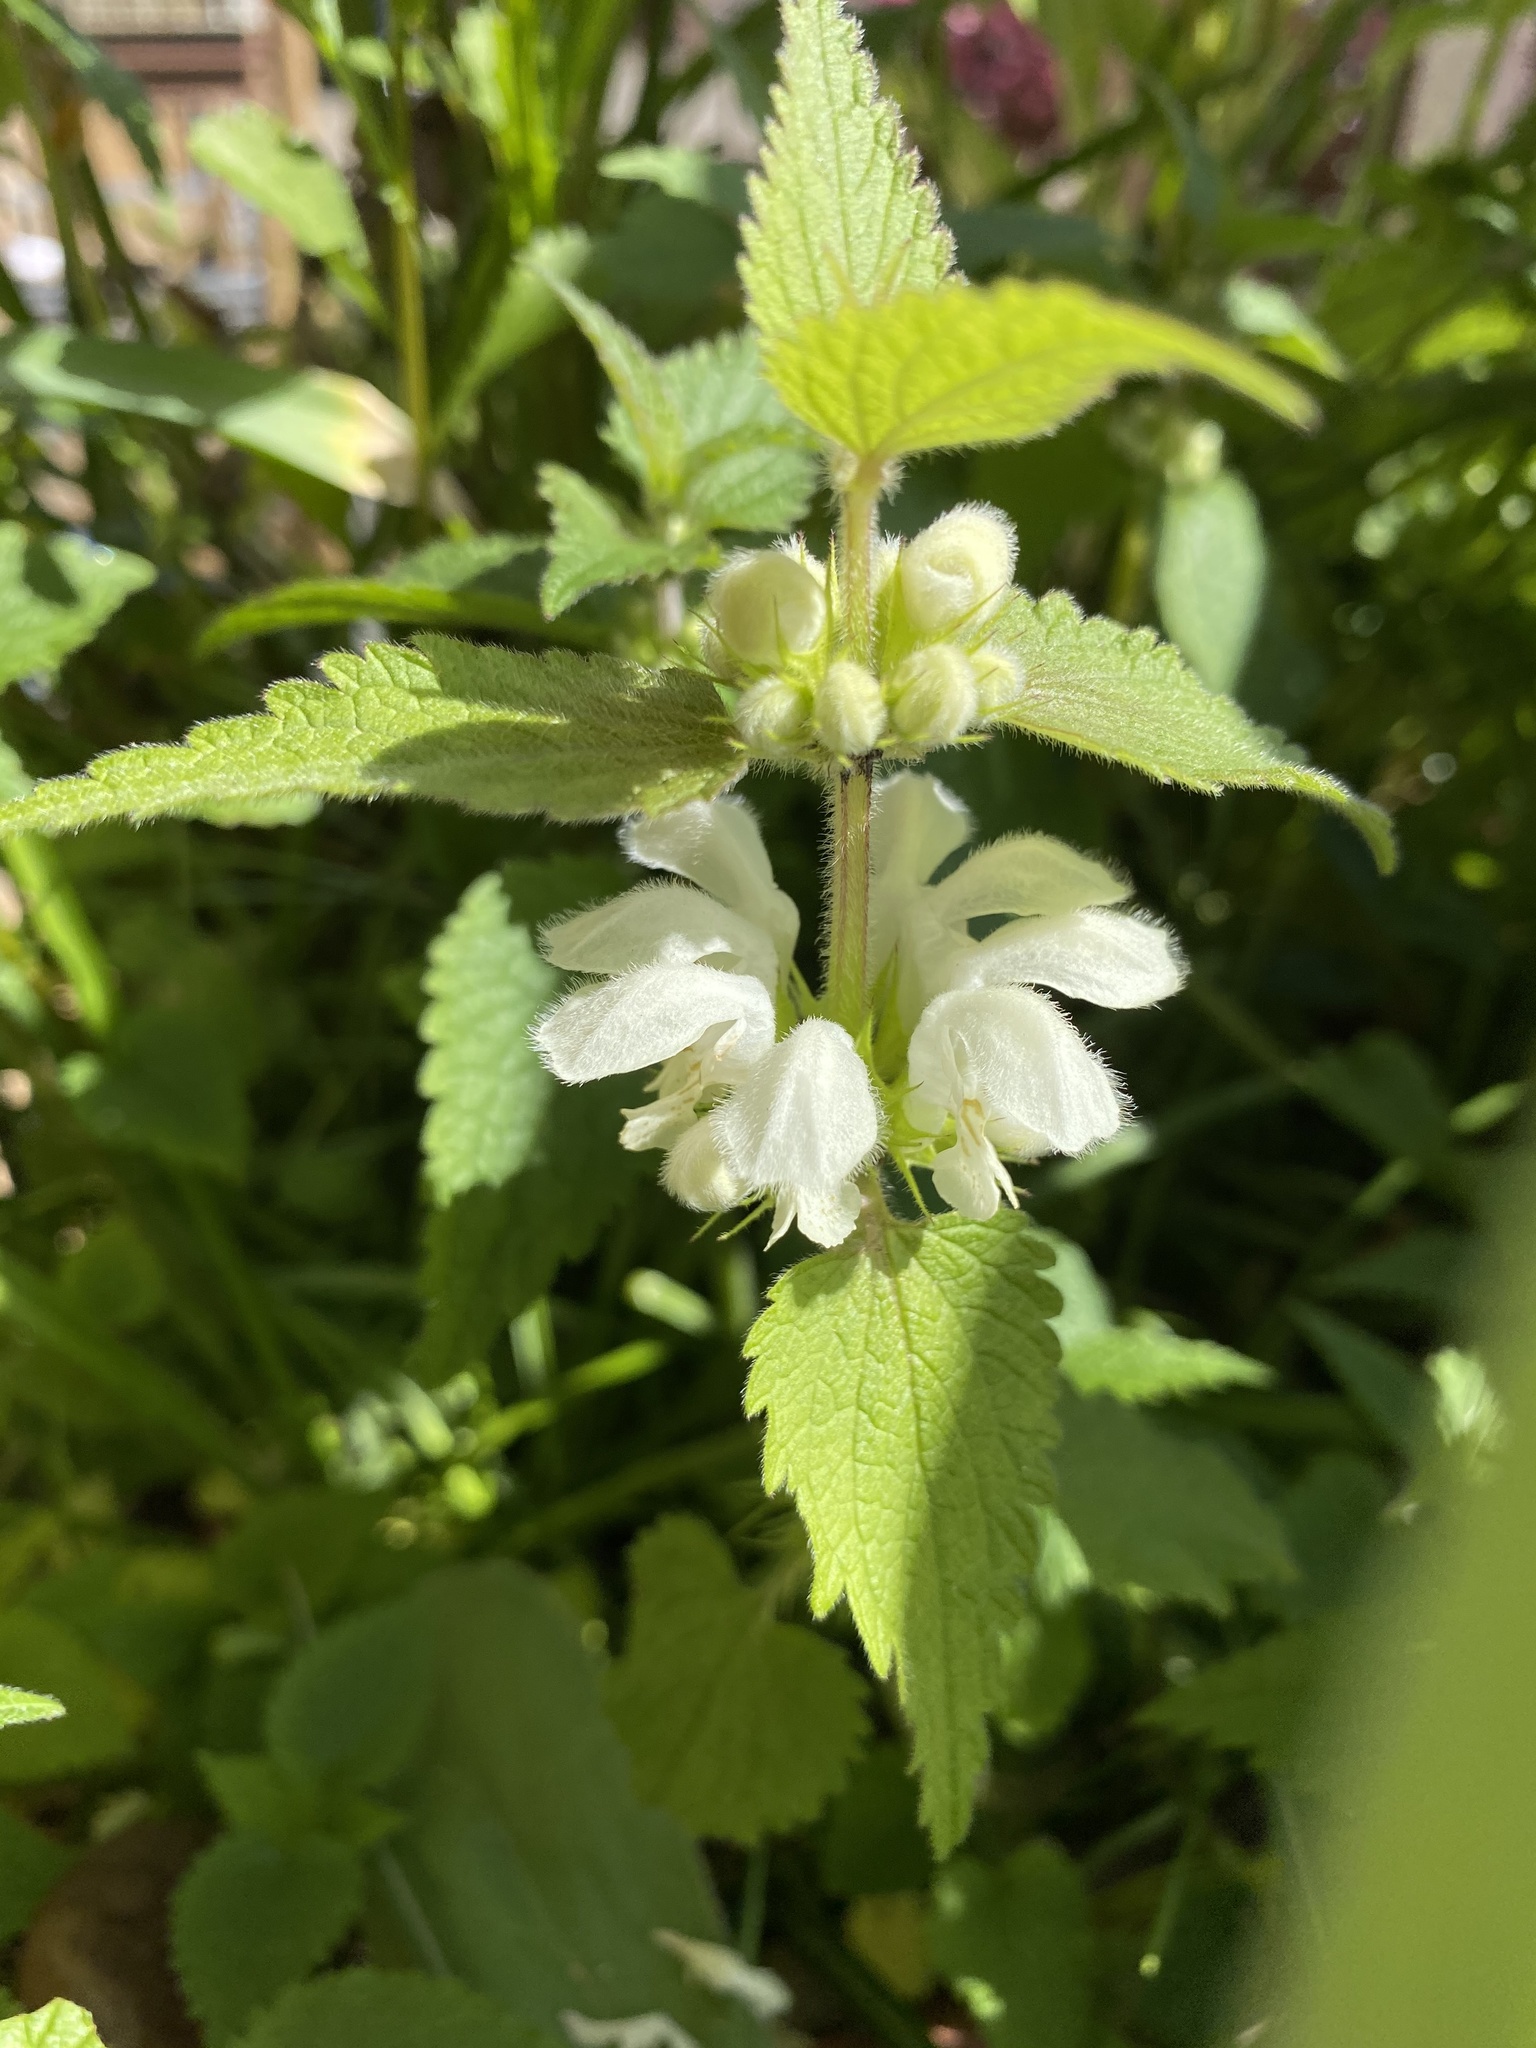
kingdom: Plantae
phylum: Tracheophyta
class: Magnoliopsida
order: Lamiales
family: Lamiaceae
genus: Lamium
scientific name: Lamium album
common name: White dead-nettle
